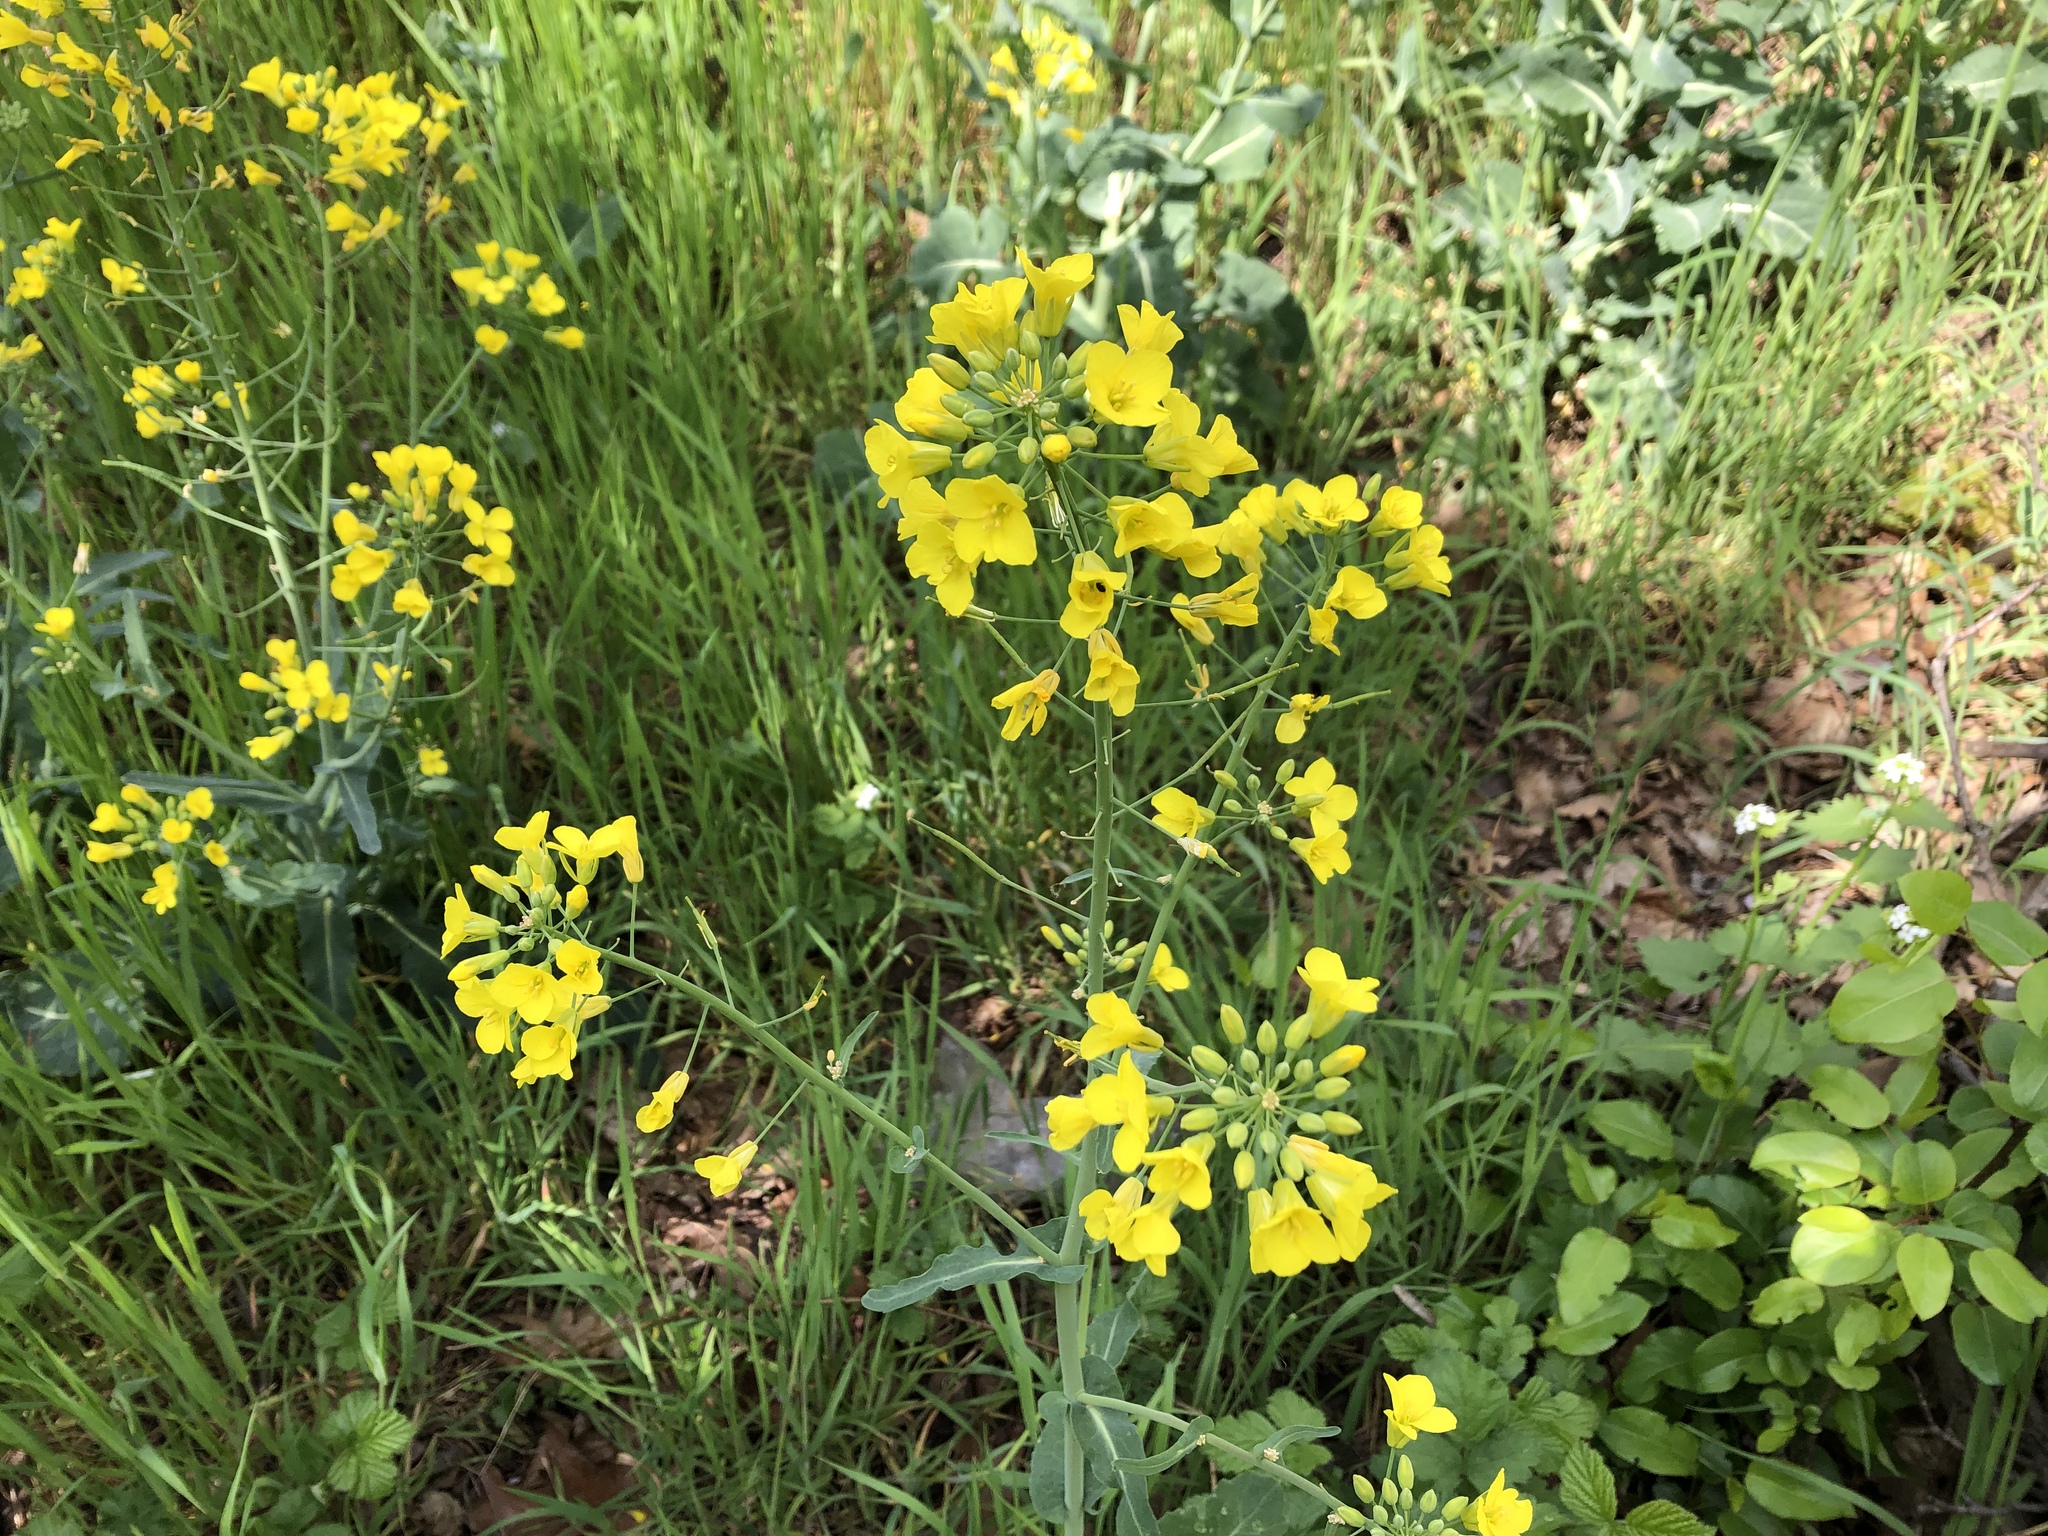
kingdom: Plantae
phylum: Tracheophyta
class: Magnoliopsida
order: Brassicales
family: Brassicaceae
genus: Brassica
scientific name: Brassica napus
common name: Rape
